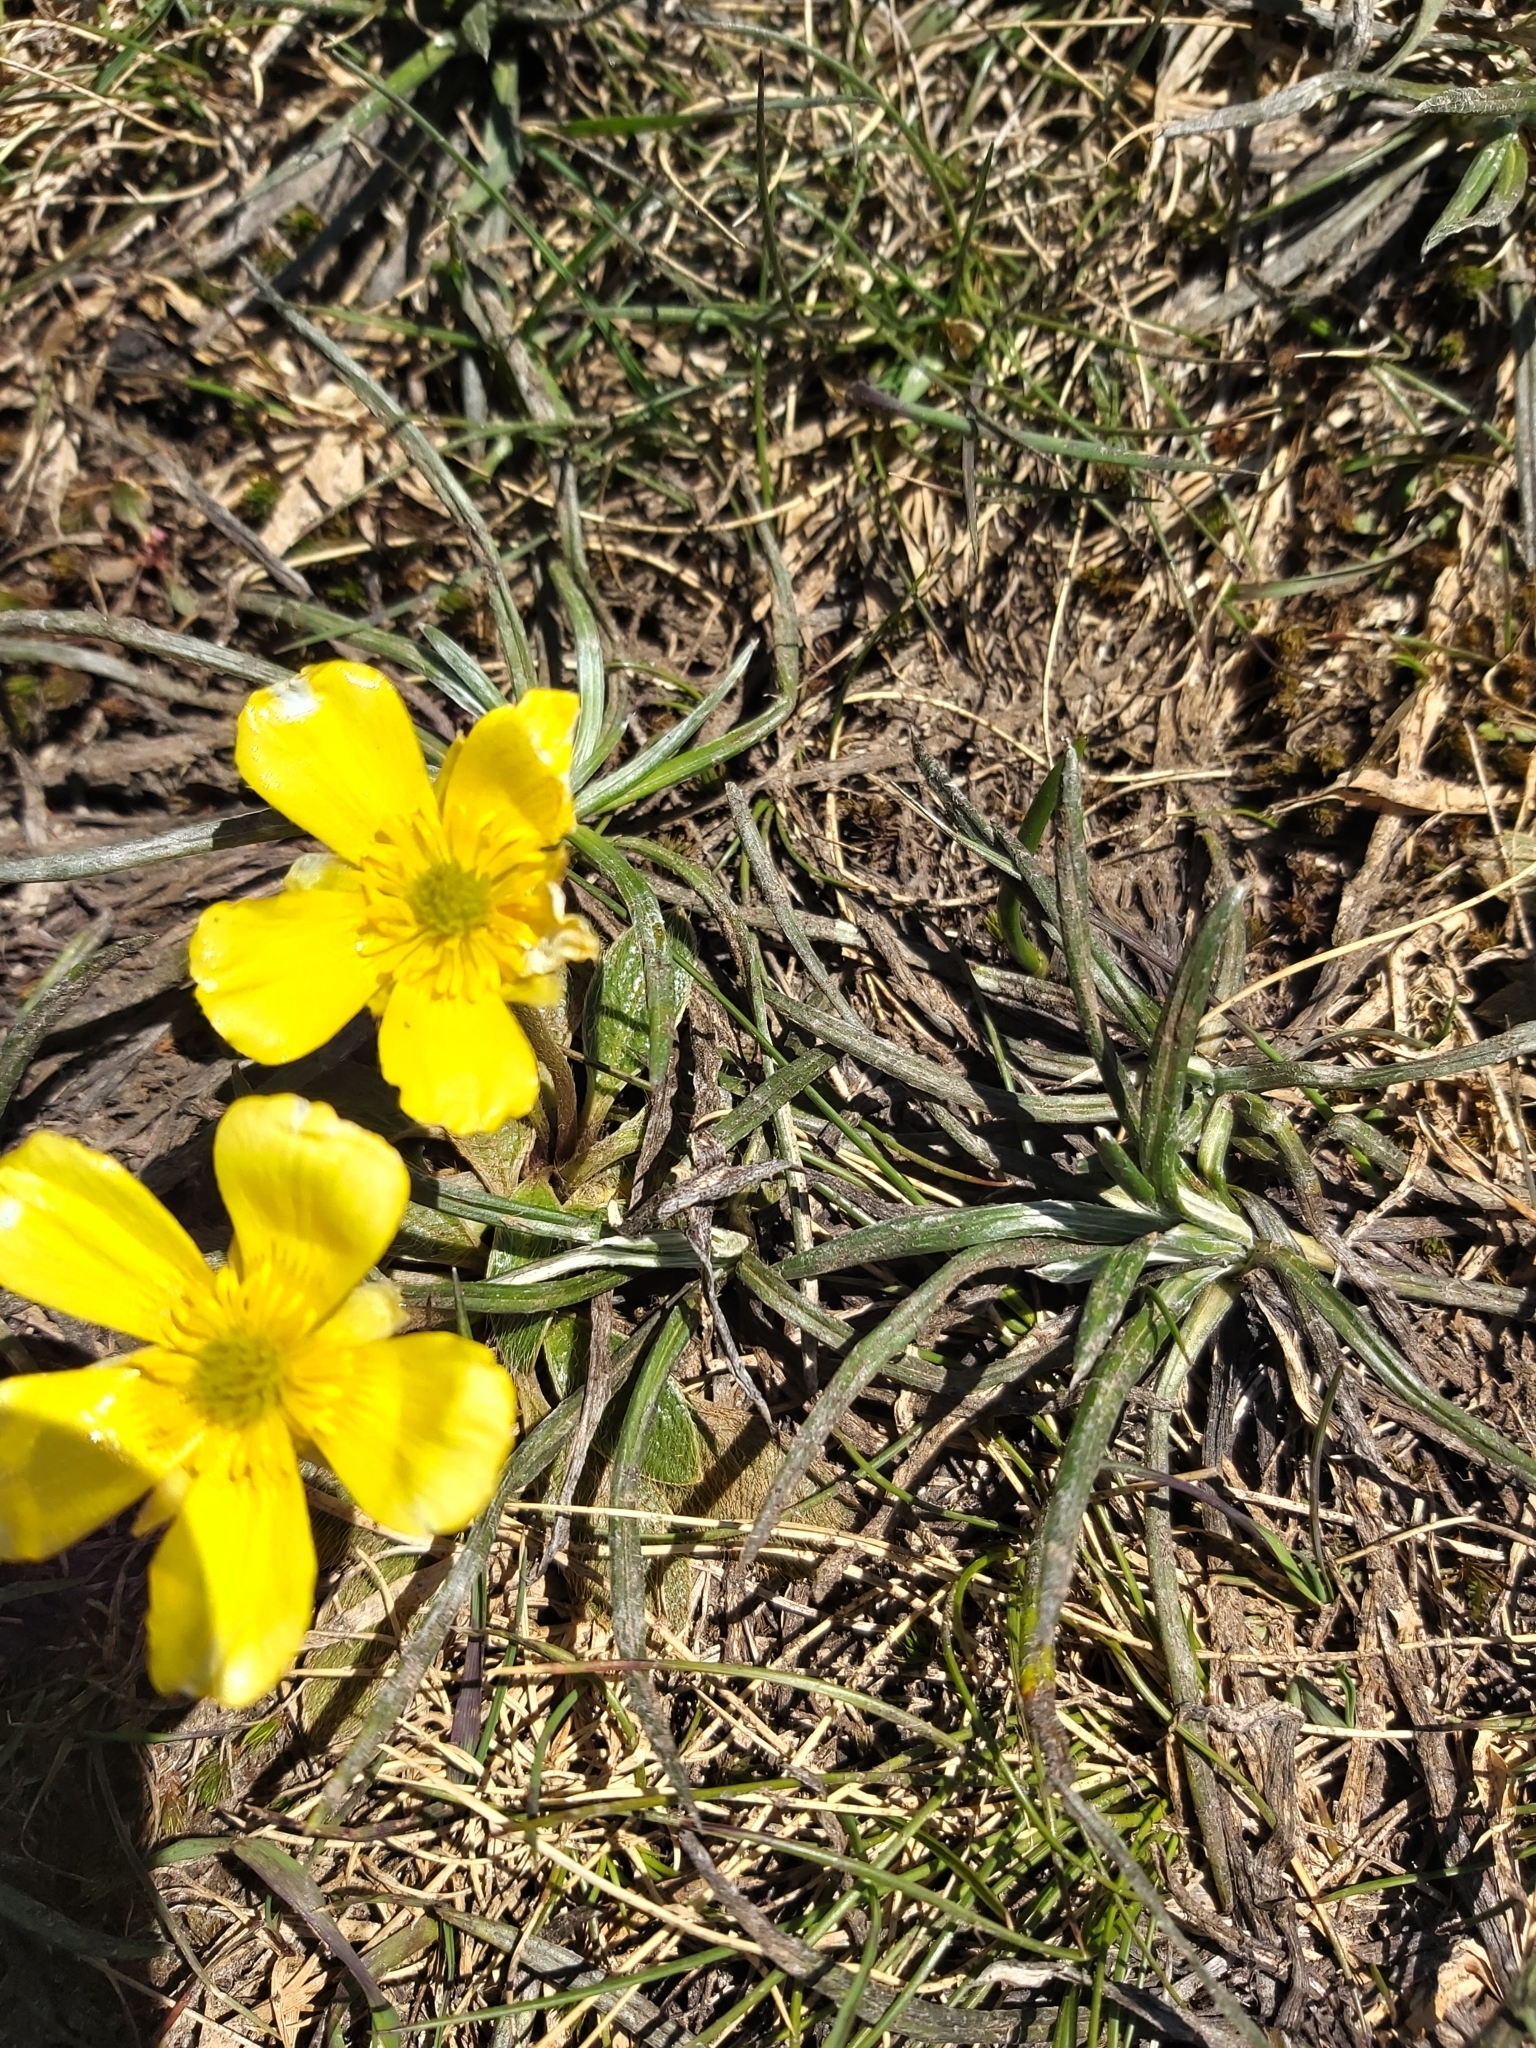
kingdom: Plantae
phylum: Tracheophyta
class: Magnoliopsida
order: Ranunculales
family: Ranunculaceae
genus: Ranunculus
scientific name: Ranunculus muelleri
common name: Felted buttercup
